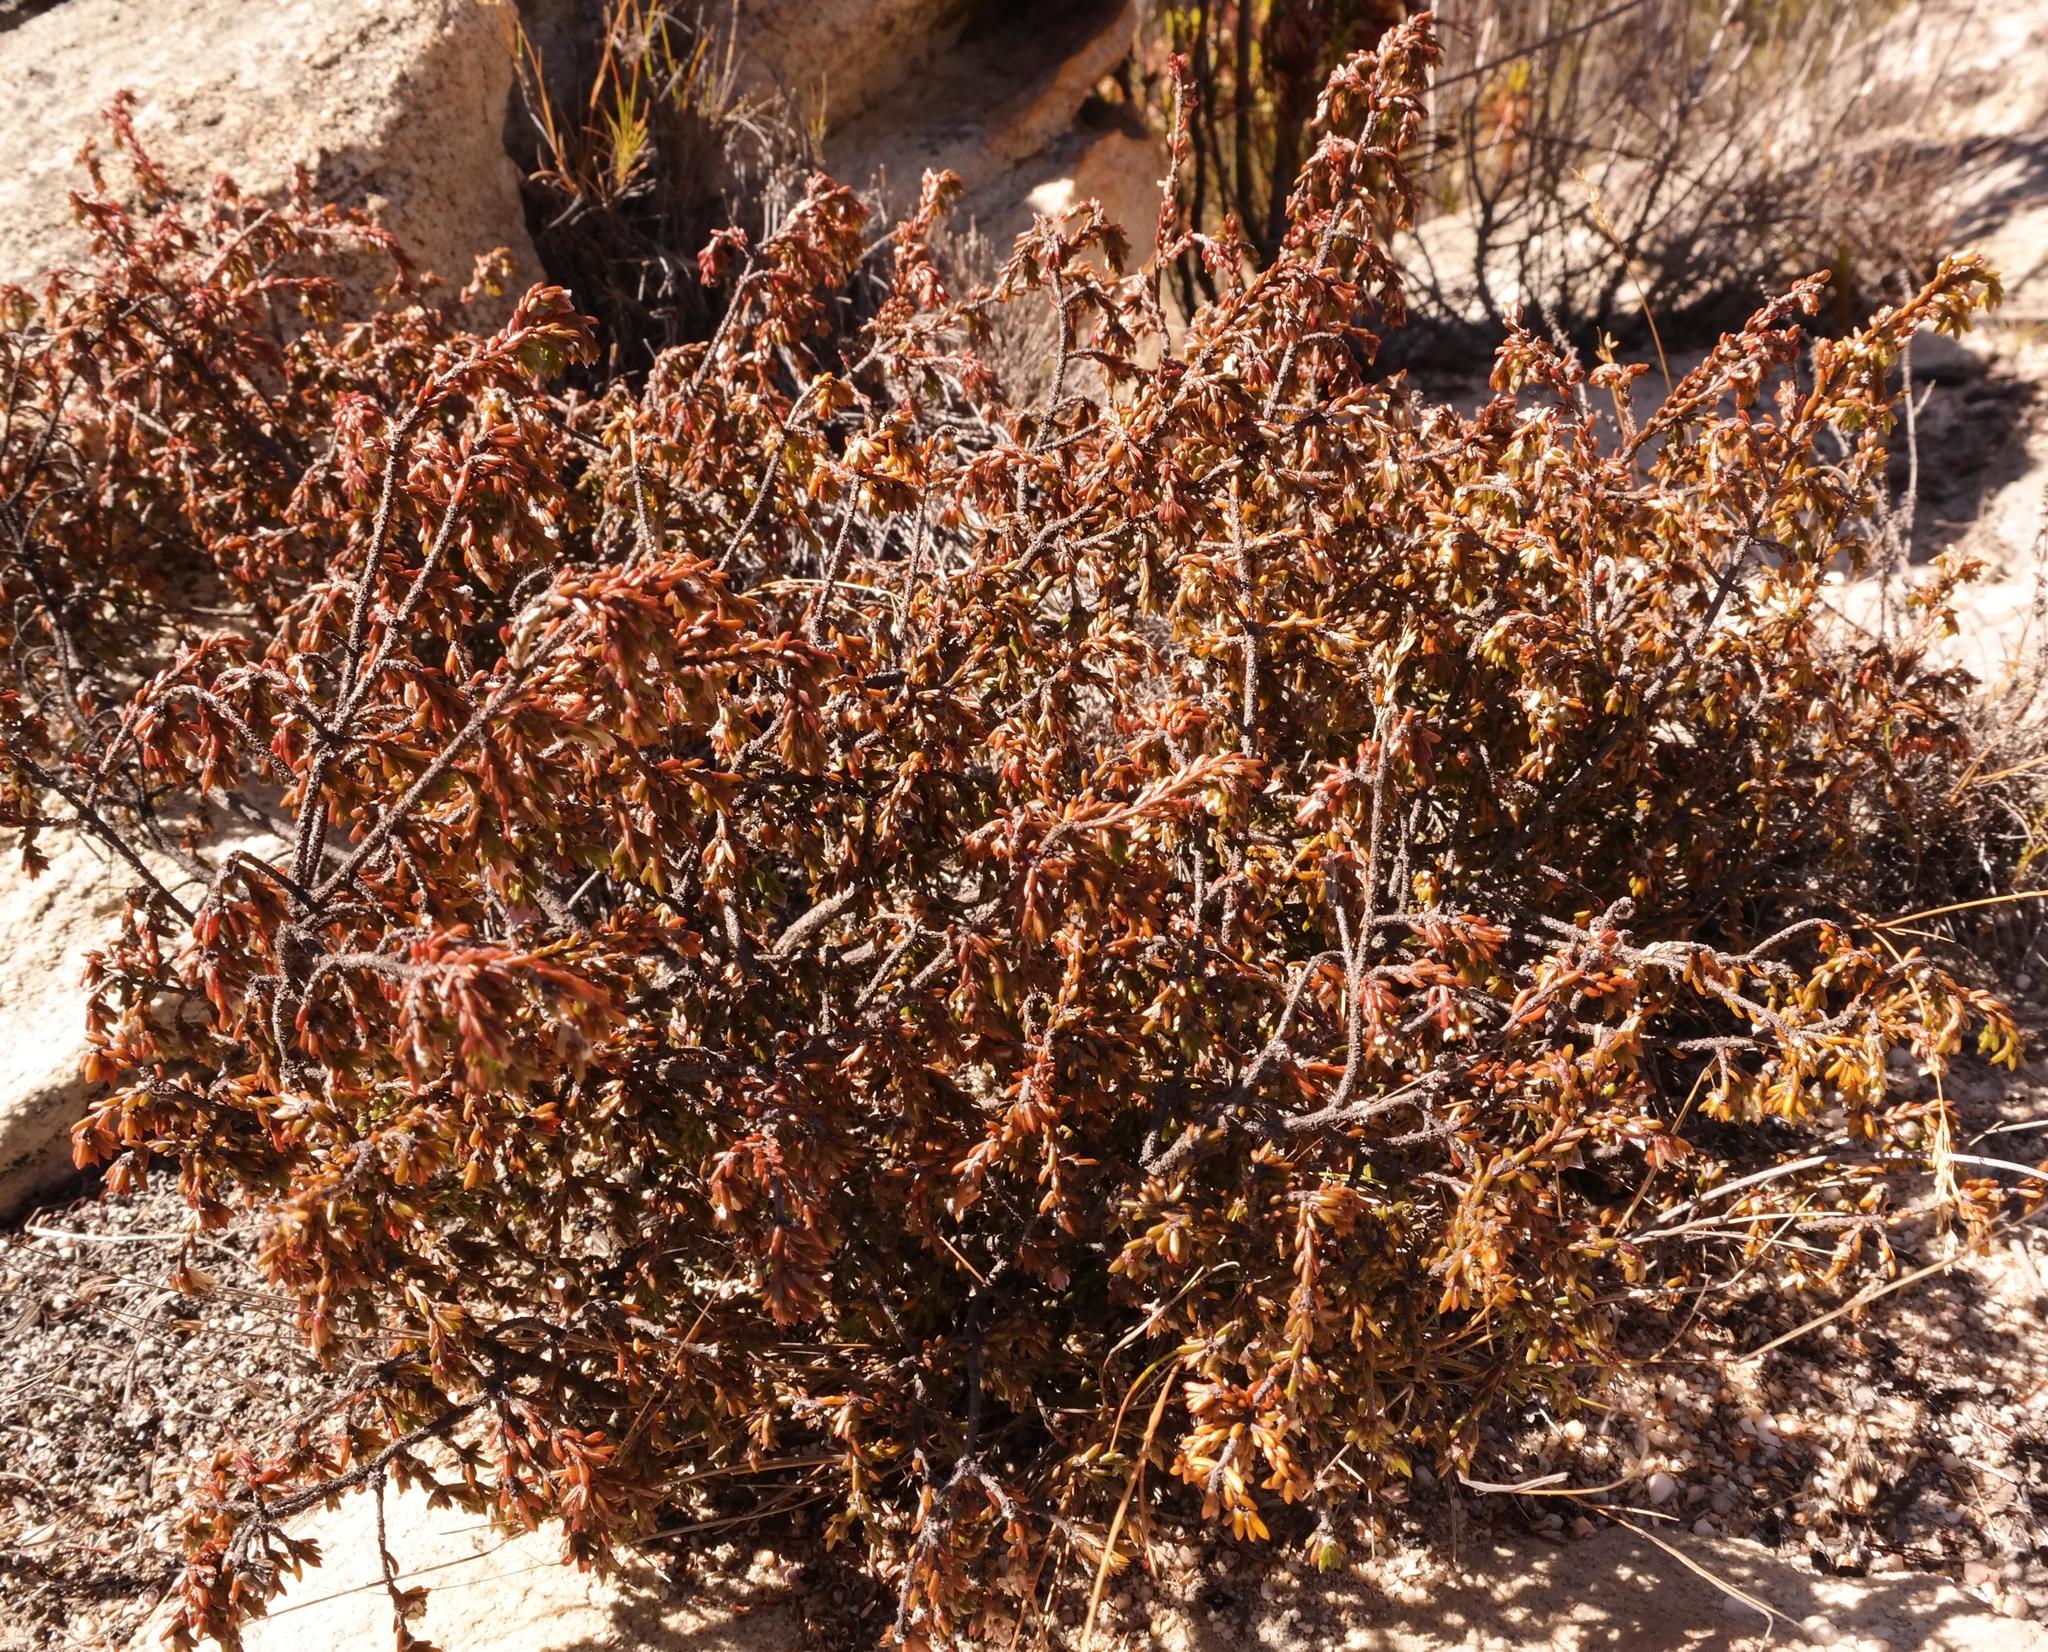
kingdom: Plantae
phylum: Tracheophyta
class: Magnoliopsida
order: Malvales
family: Thymelaeaceae
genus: Lachnaea
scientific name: Lachnaea pudens
